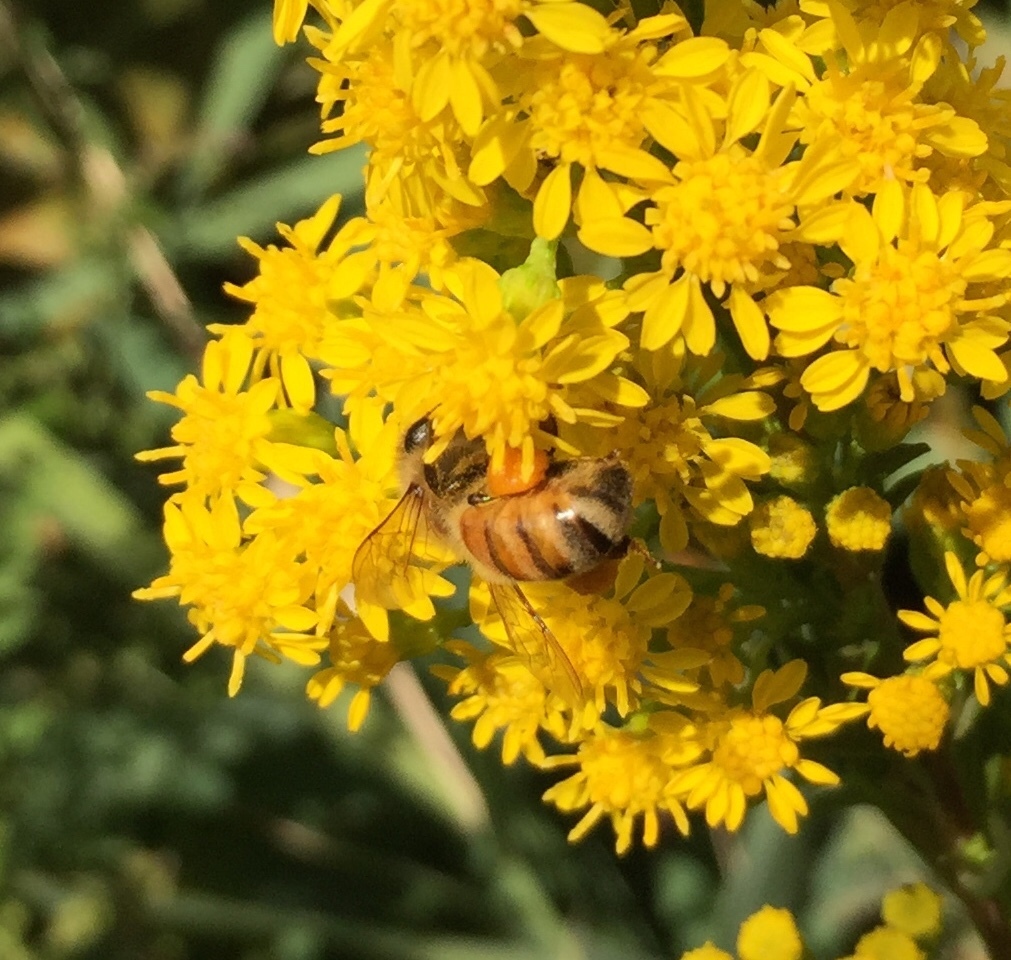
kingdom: Animalia
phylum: Arthropoda
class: Insecta
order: Hymenoptera
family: Apidae
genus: Apis
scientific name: Apis mellifera
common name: Honey bee
